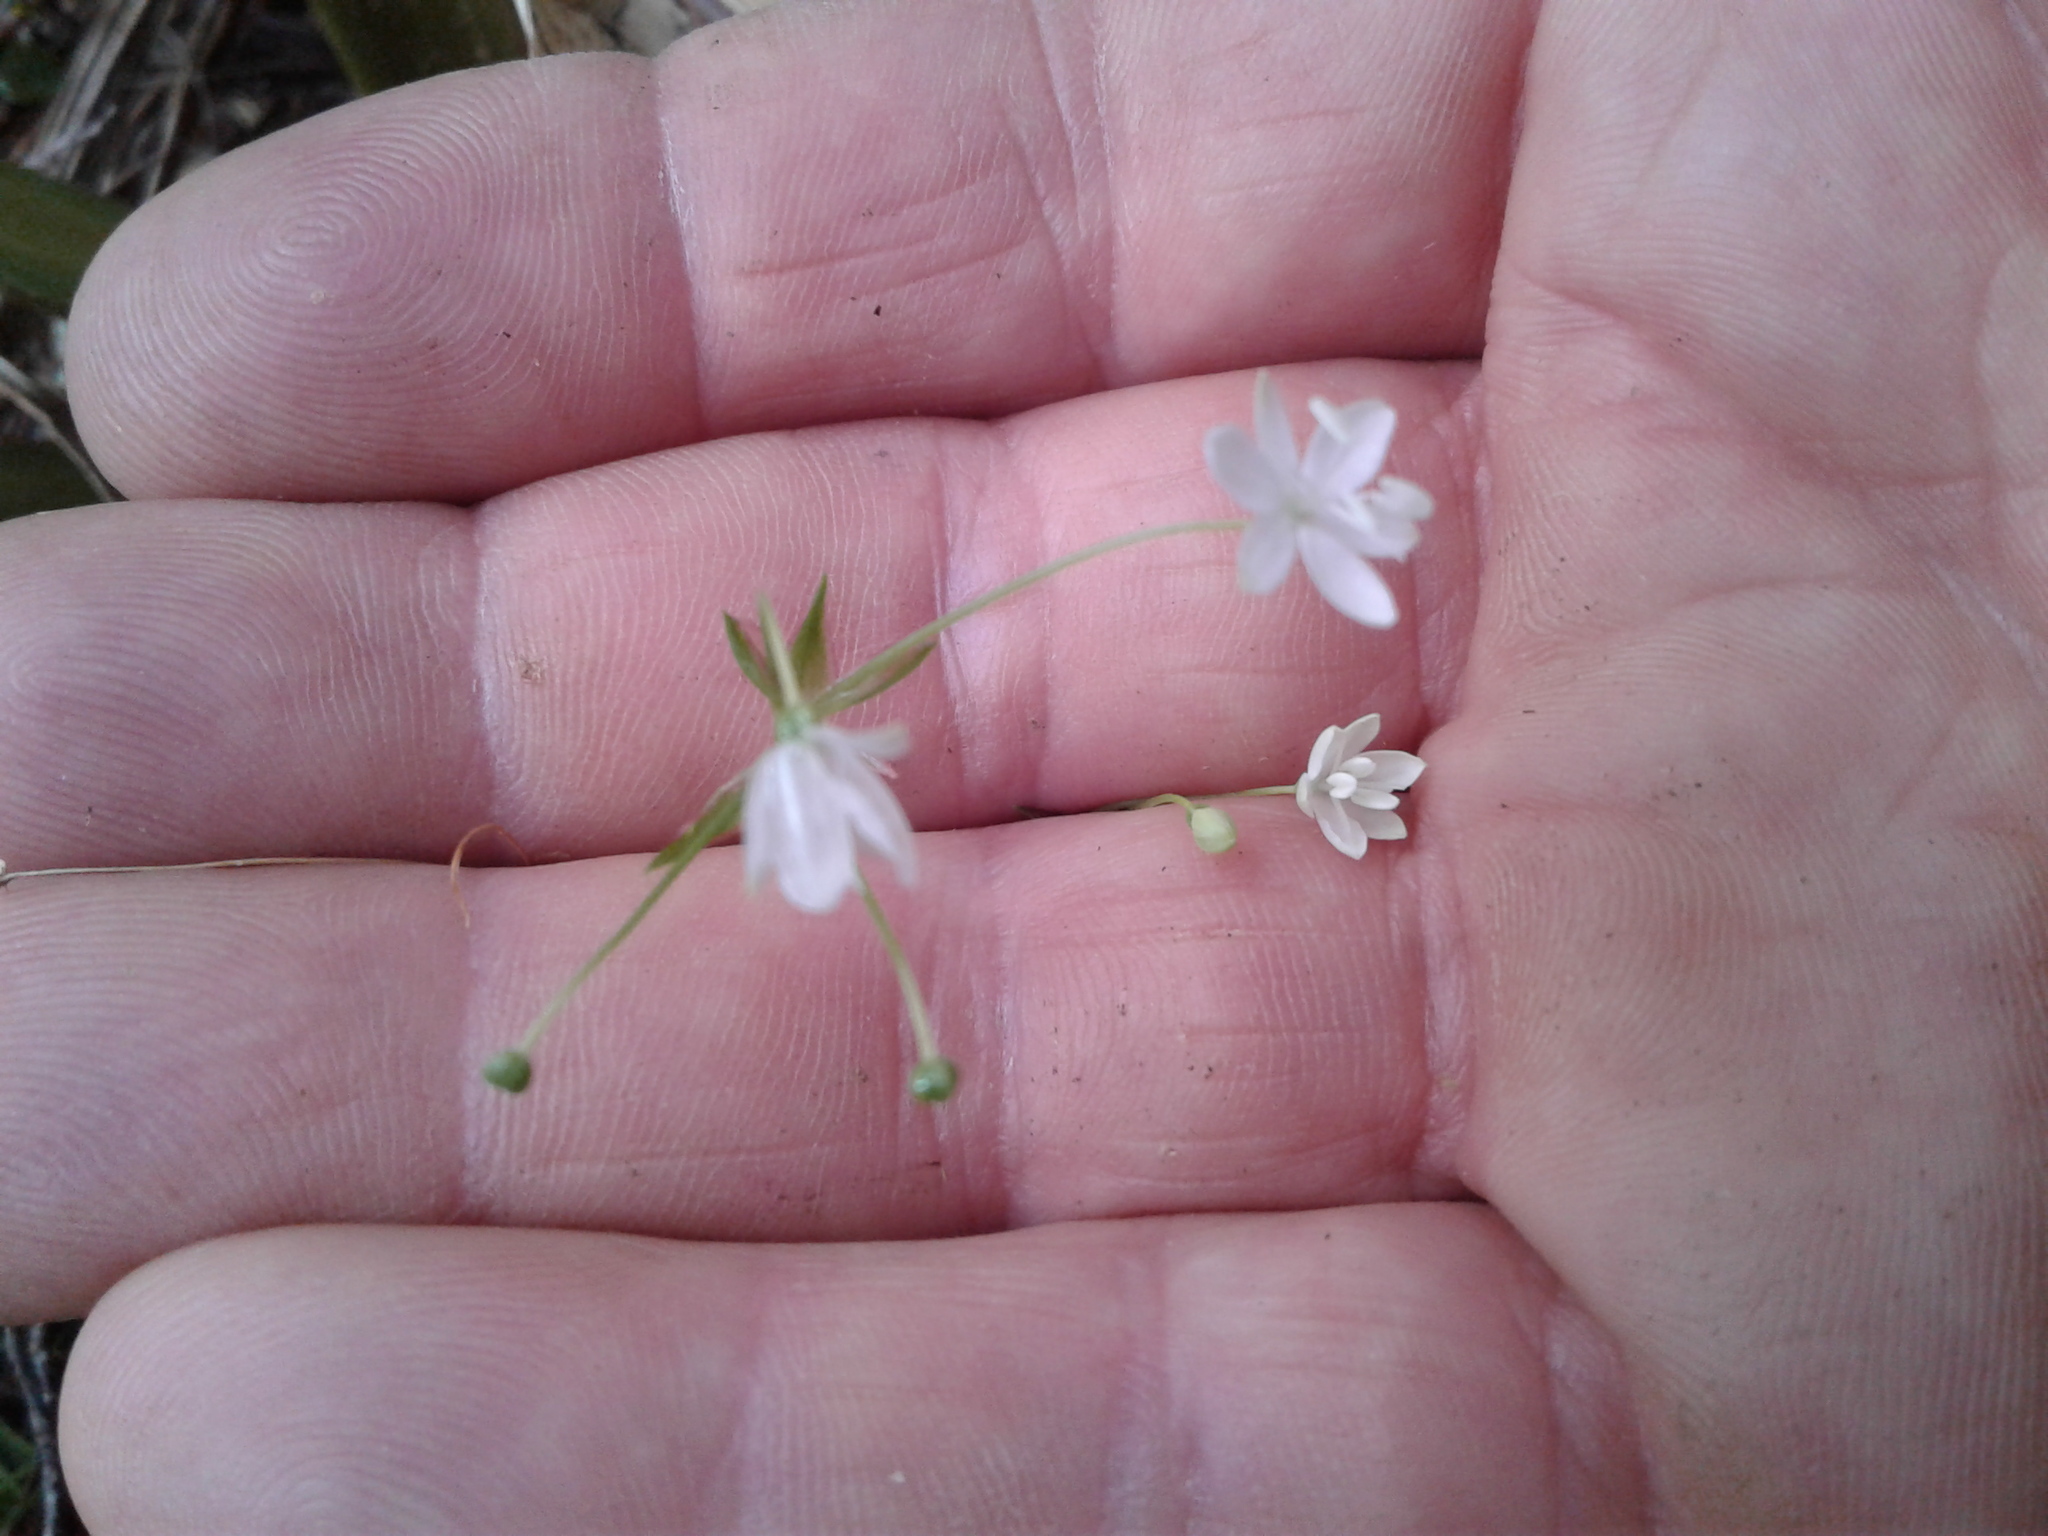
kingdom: Plantae
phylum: Tracheophyta
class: Liliopsida
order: Asparagales
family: Iridaceae
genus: Libertia
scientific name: Libertia micrantha
